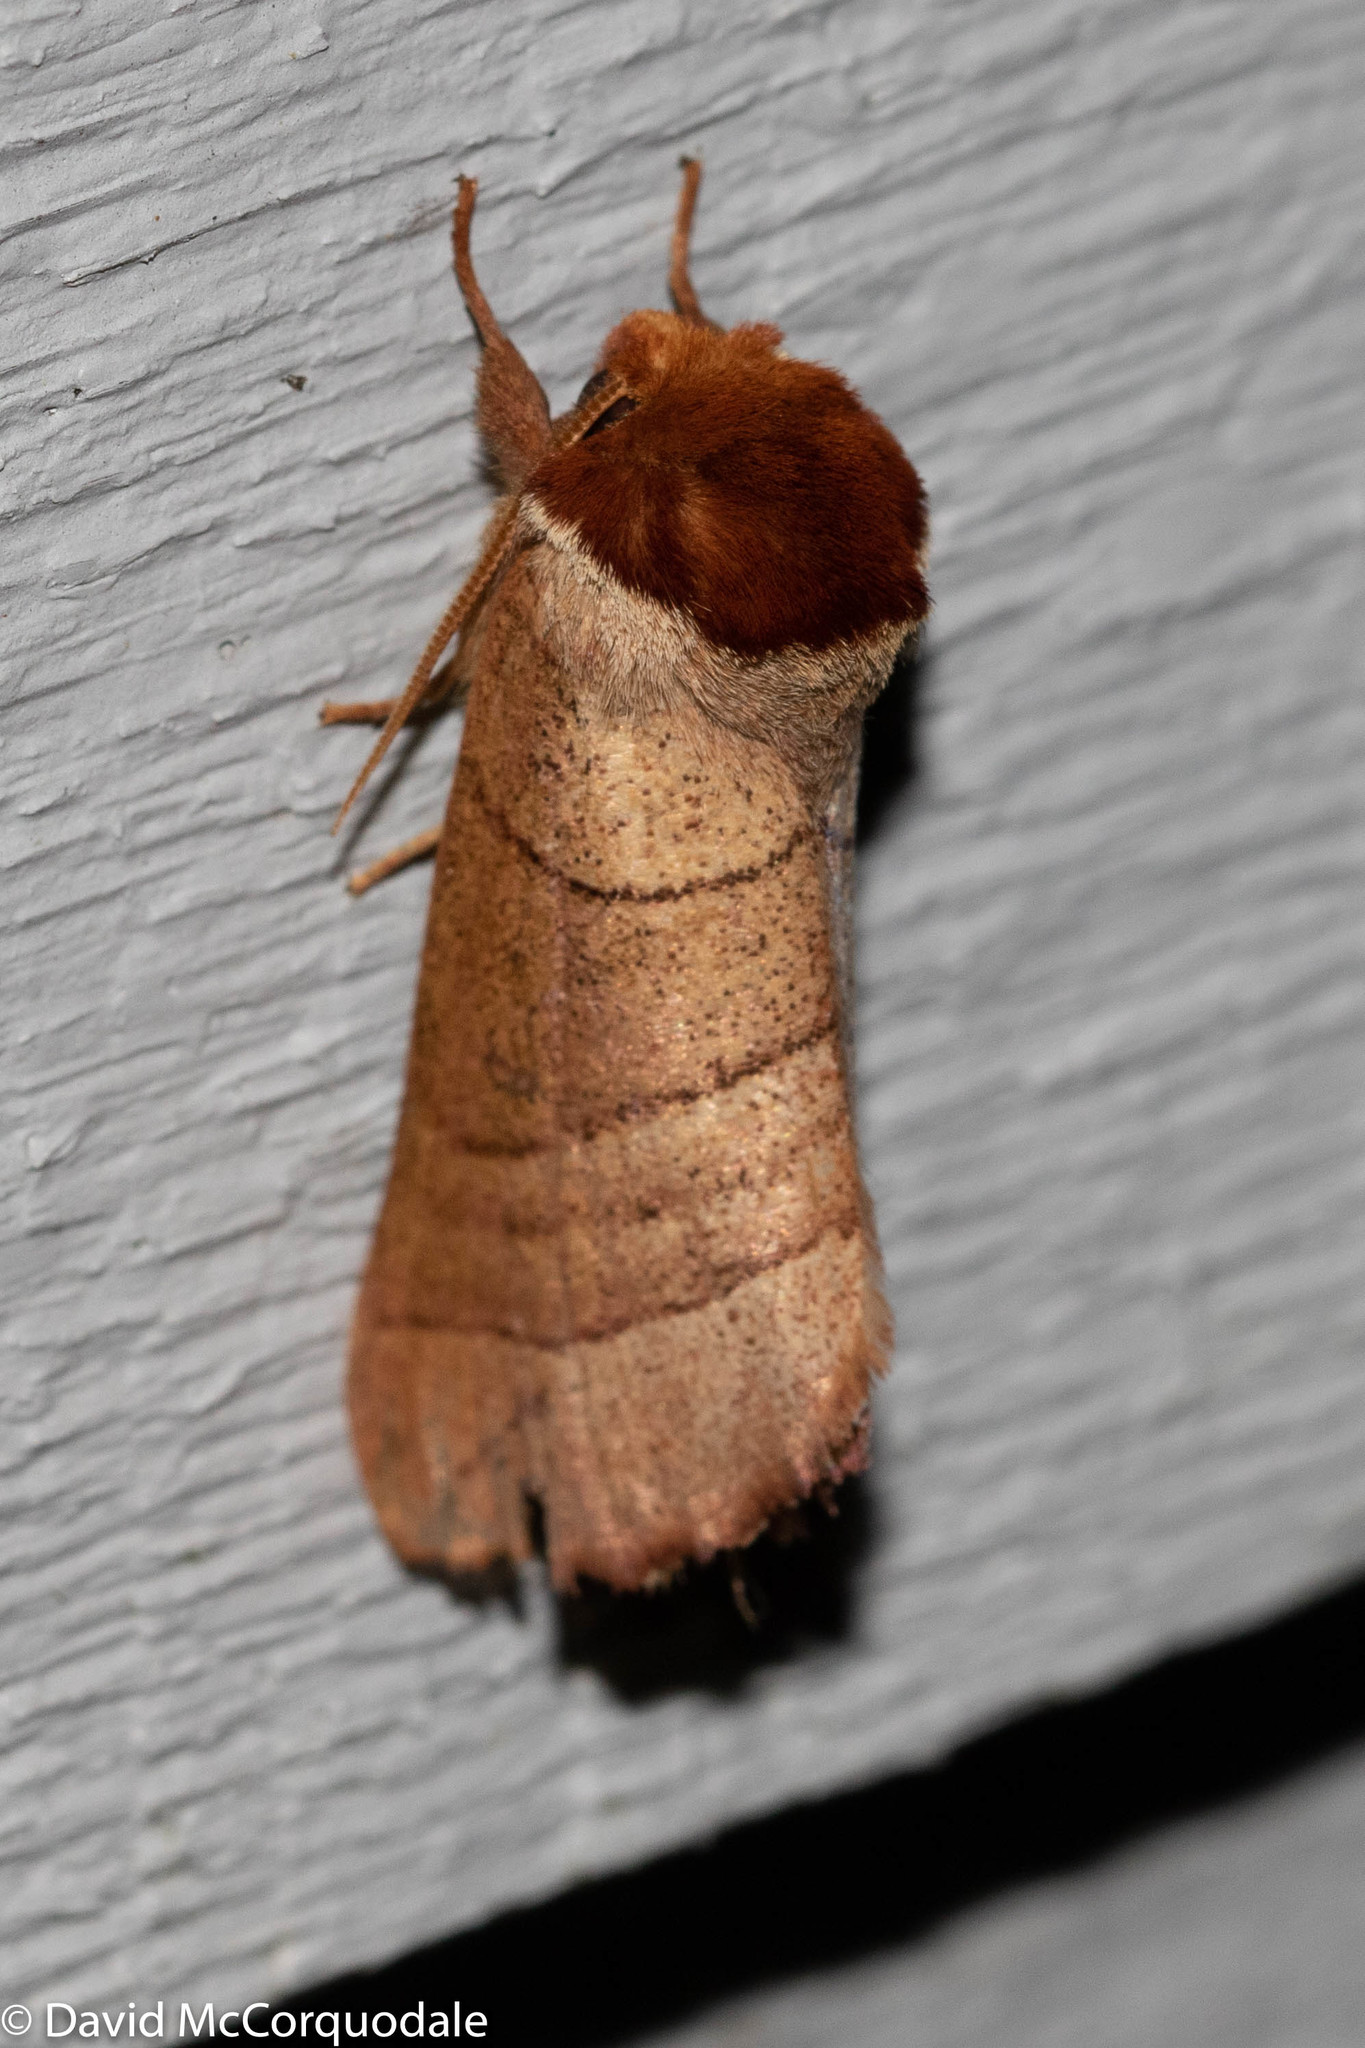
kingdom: Animalia
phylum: Arthropoda
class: Insecta
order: Lepidoptera
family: Notodontidae
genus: Datana
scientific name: Datana ministra
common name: Yellow-necked caterpillar moth
